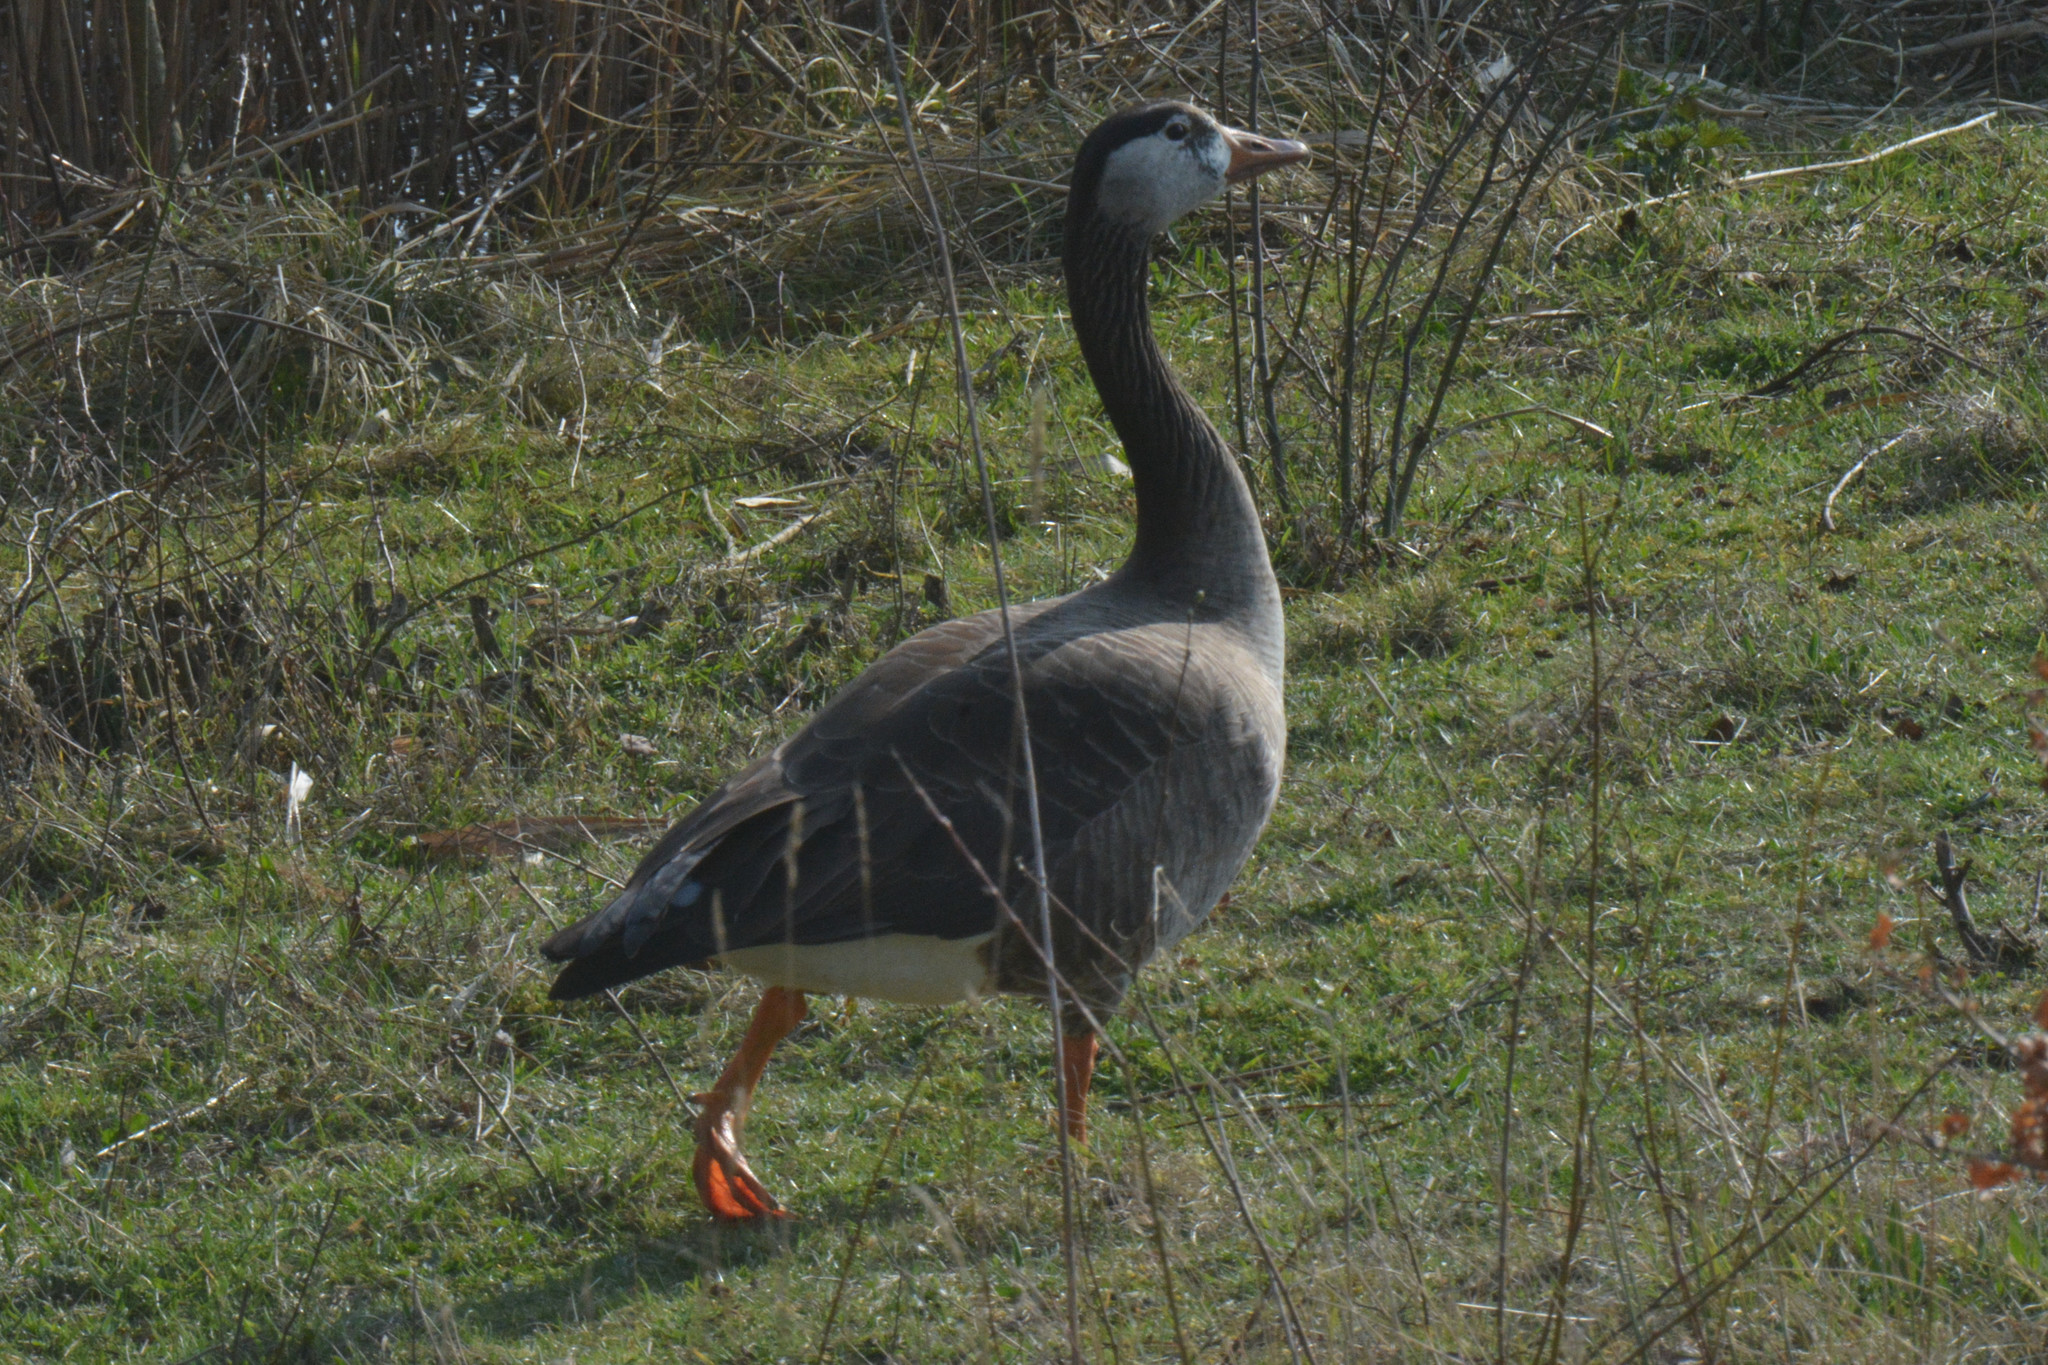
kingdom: Animalia
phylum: Chordata
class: Aves
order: Anseriformes
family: Anatidae
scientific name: Anatidae
